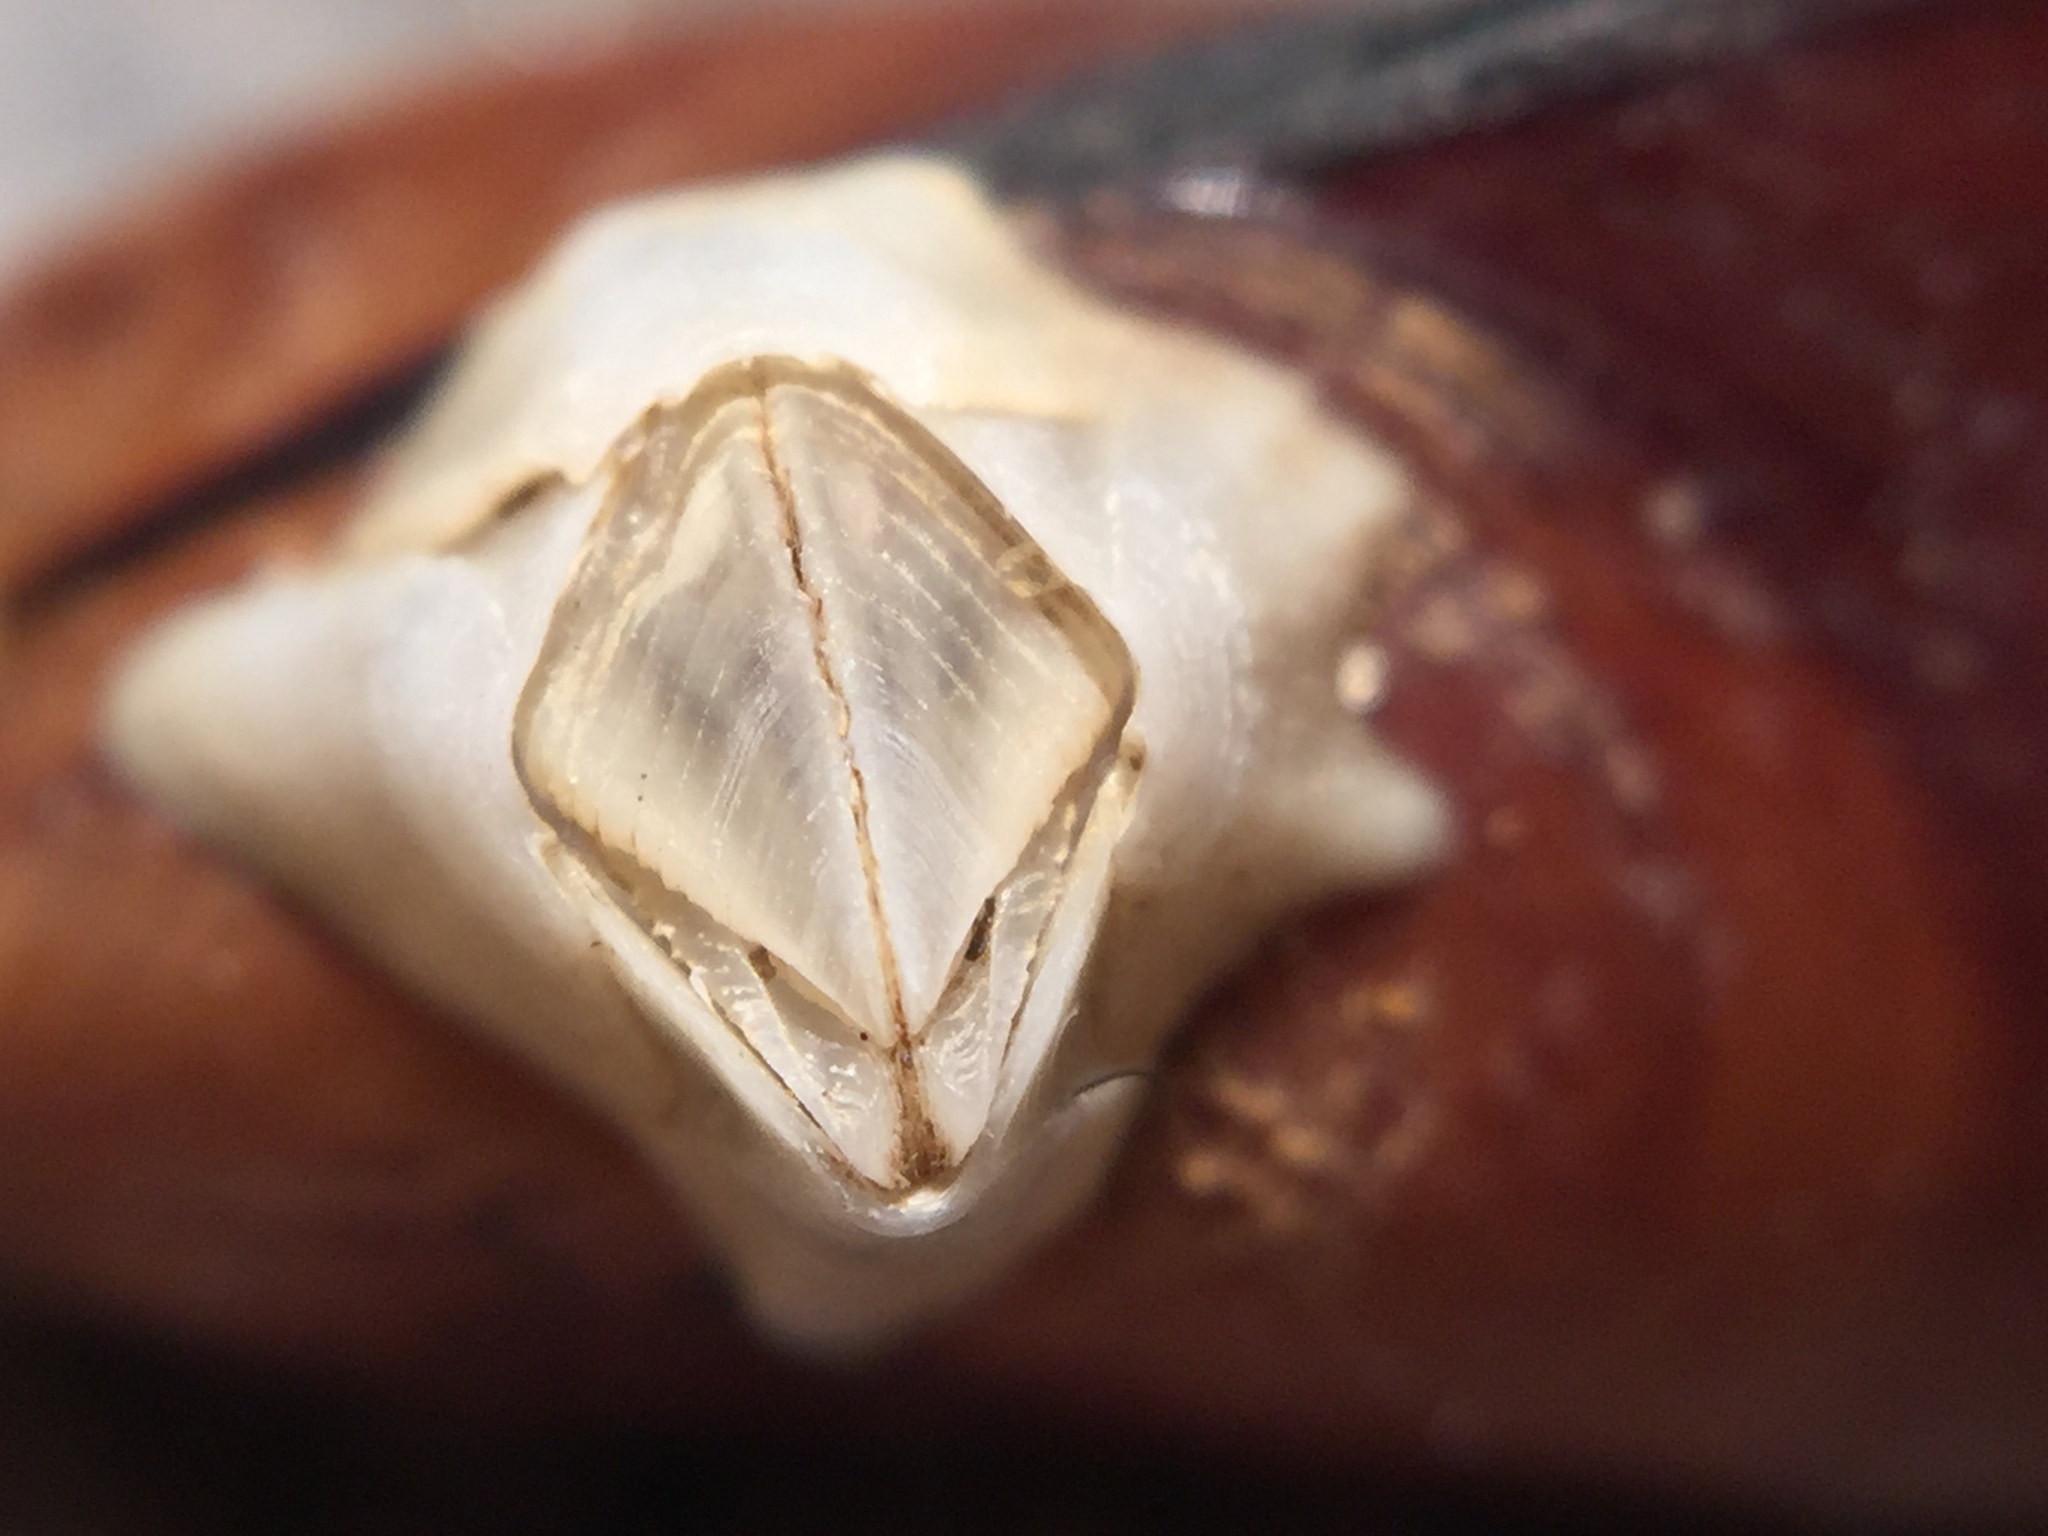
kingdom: Animalia
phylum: Arthropoda
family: Elminiidae
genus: Austrominius
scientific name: Austrominius modestus
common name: Australasian barnacle
